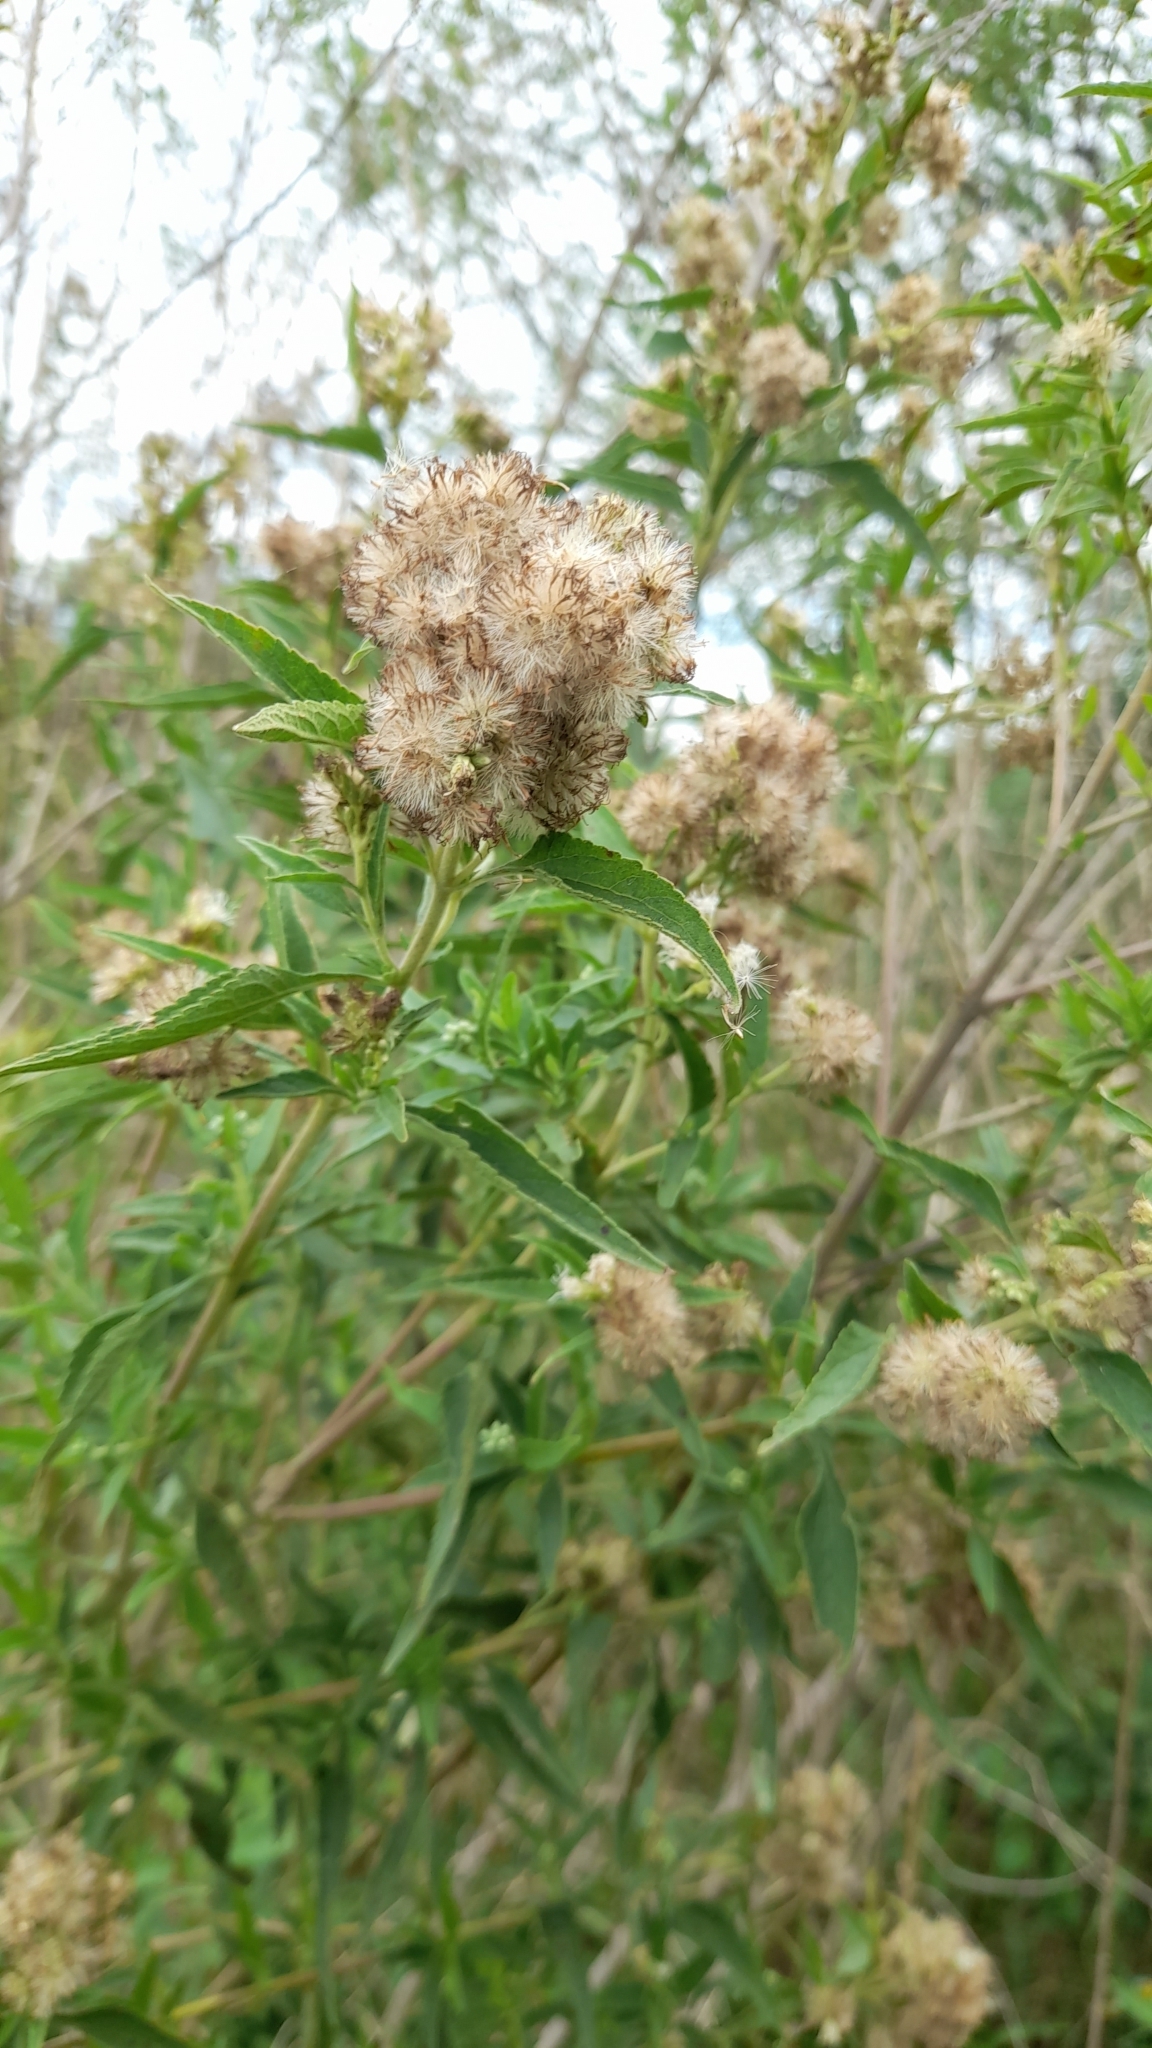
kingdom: Plantae
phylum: Tracheophyta
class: Magnoliopsida
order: Asterales
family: Asteraceae
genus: Austroeupatorium
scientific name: Austroeupatorium inulifolium
